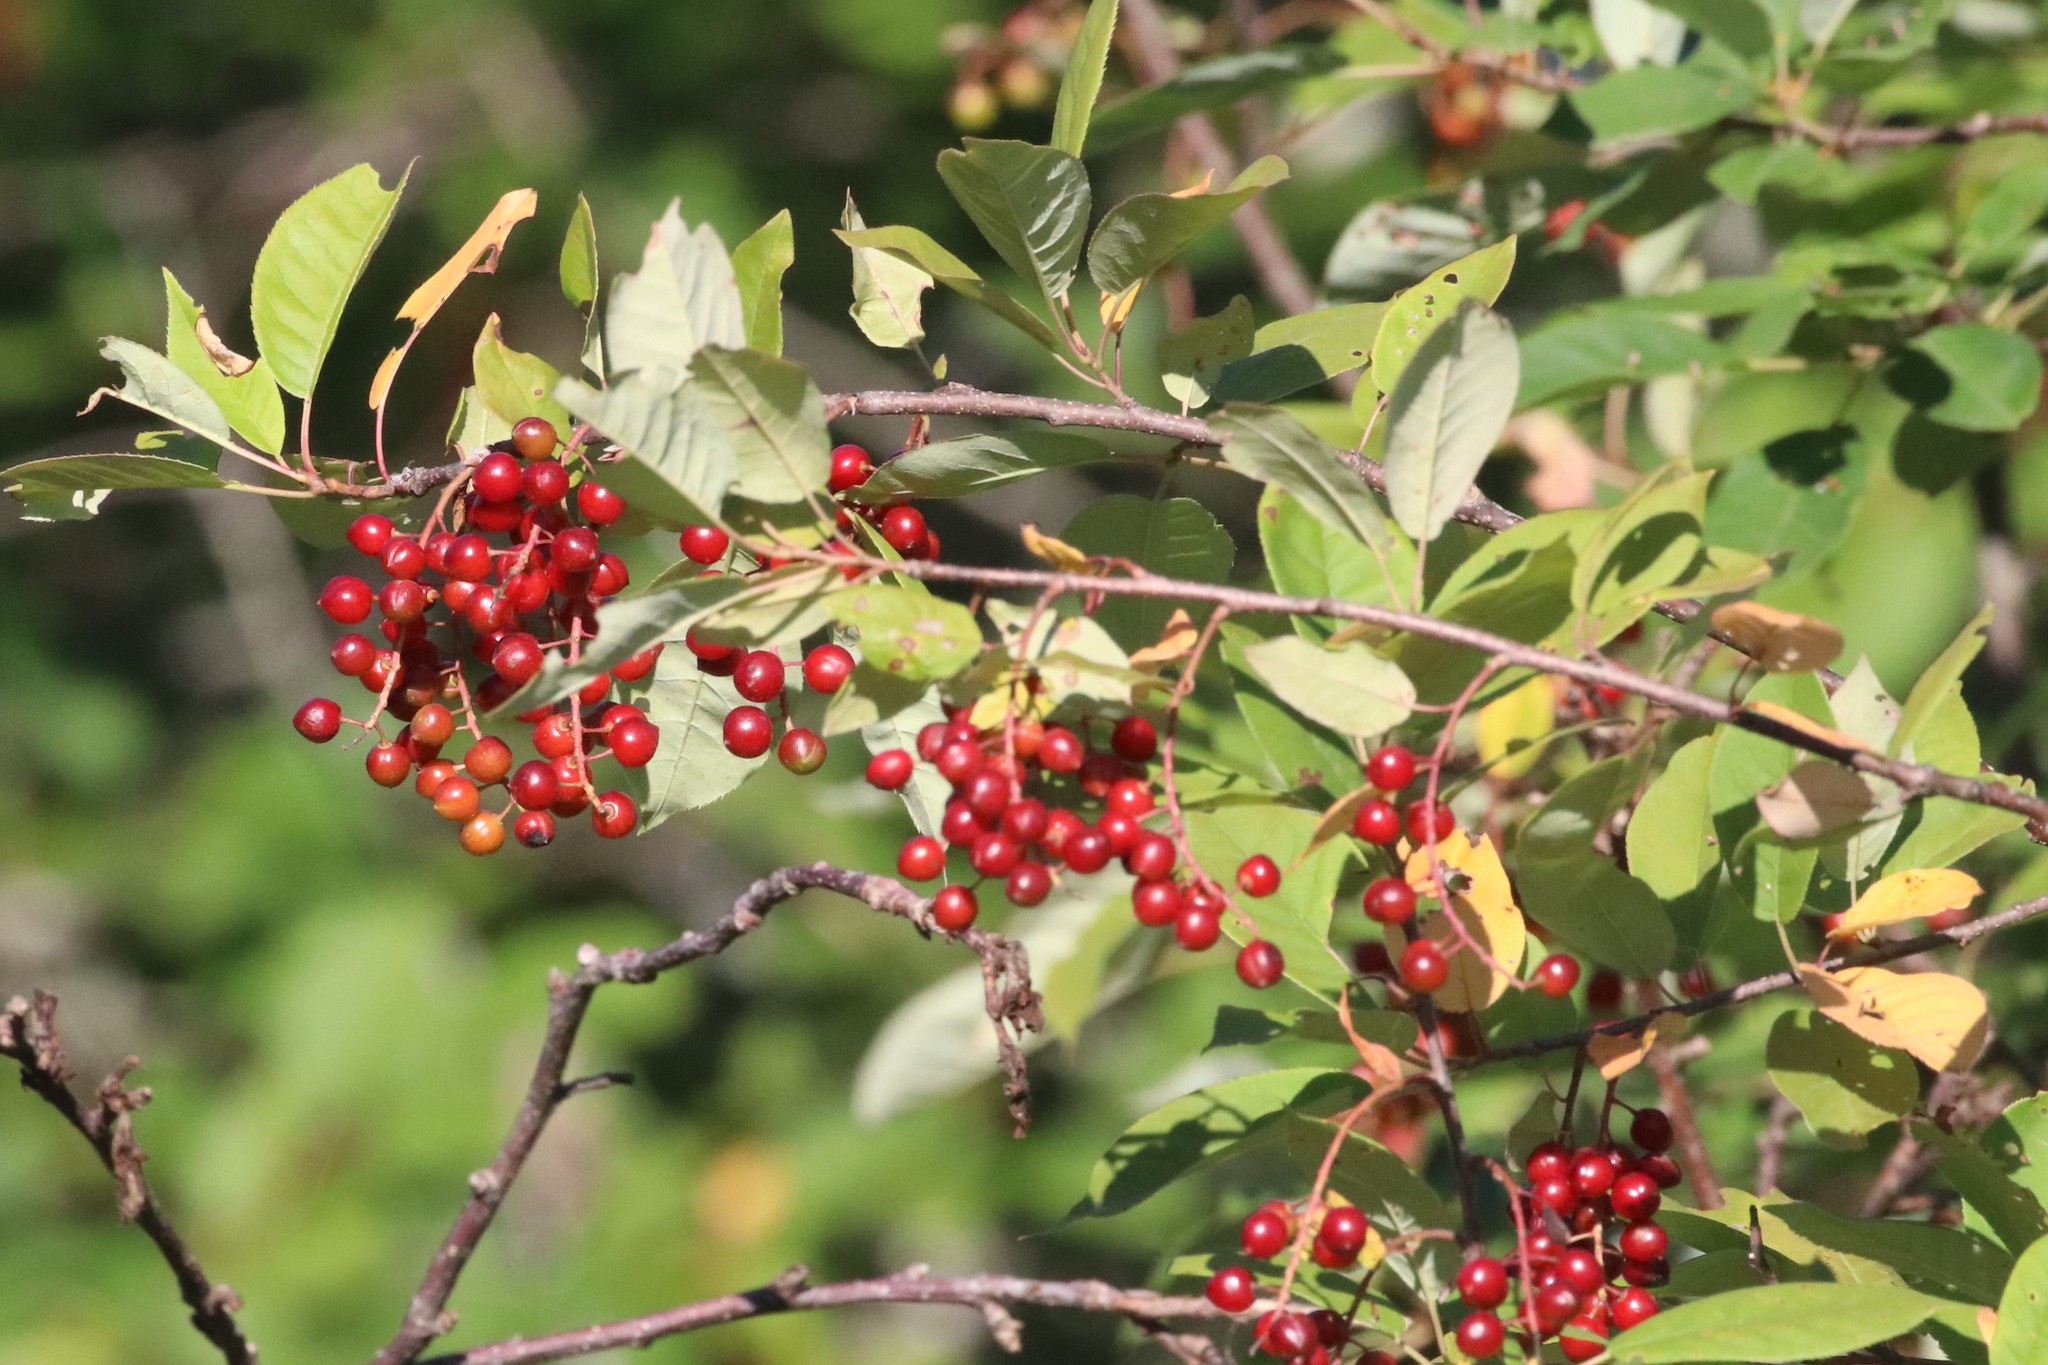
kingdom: Plantae
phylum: Tracheophyta
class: Magnoliopsida
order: Rosales
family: Rosaceae
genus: Prunus
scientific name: Prunus virginiana
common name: Chokecherry
